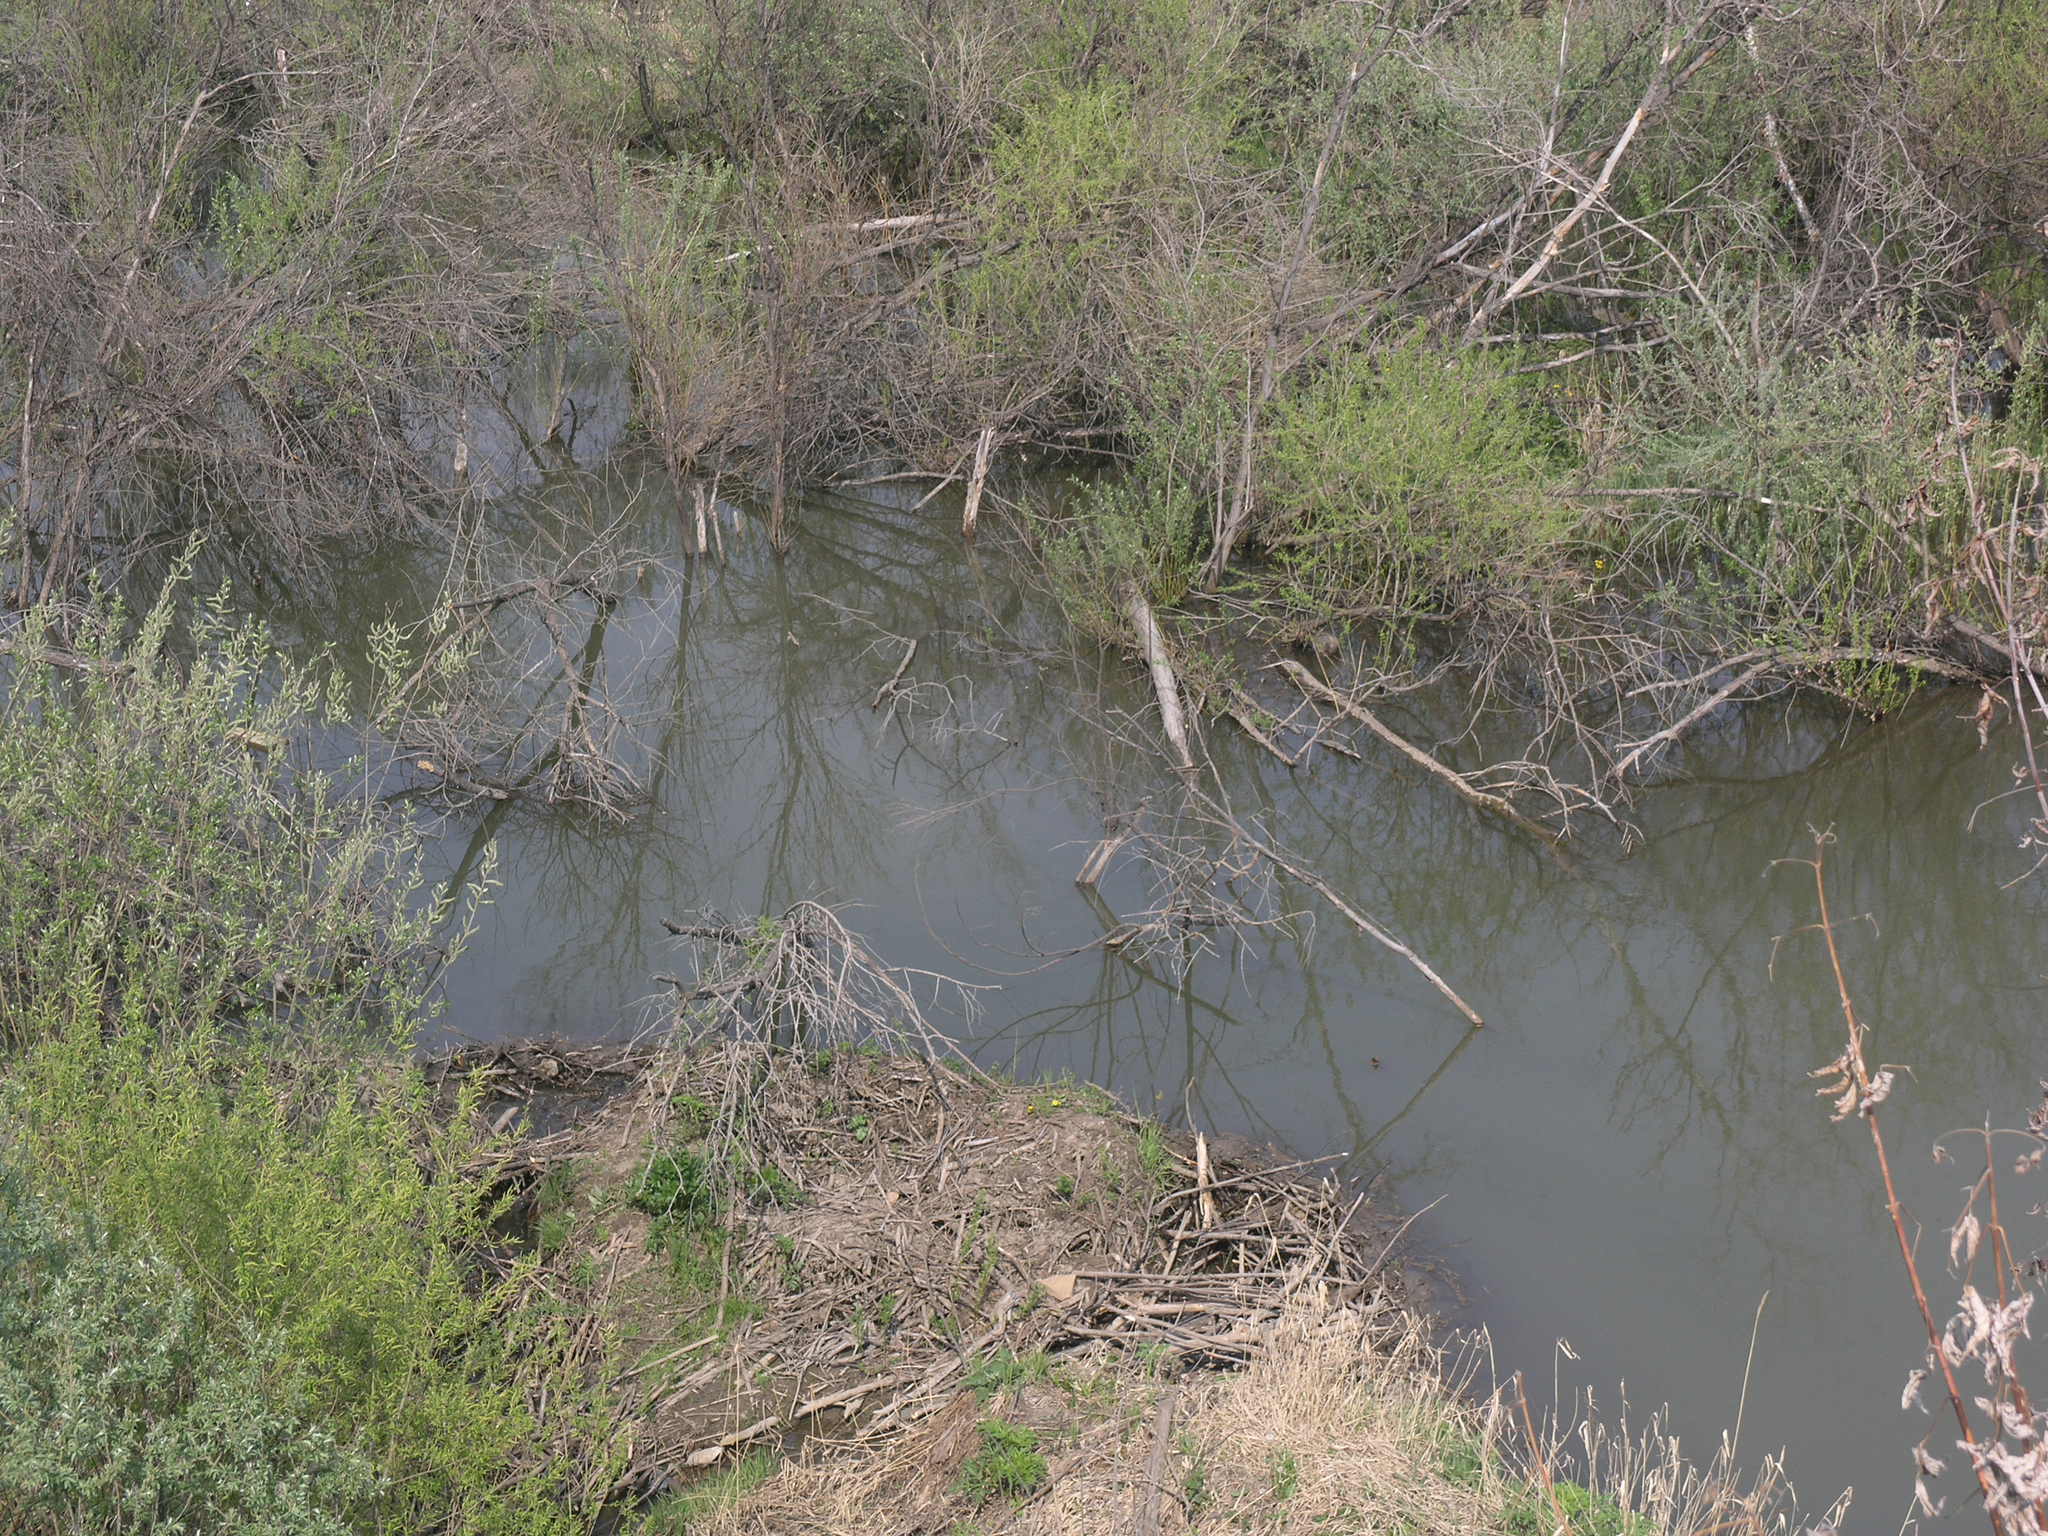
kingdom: Animalia
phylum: Chordata
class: Mammalia
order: Rodentia
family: Castoridae
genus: Castor
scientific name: Castor fiber
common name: Eurasian beaver
